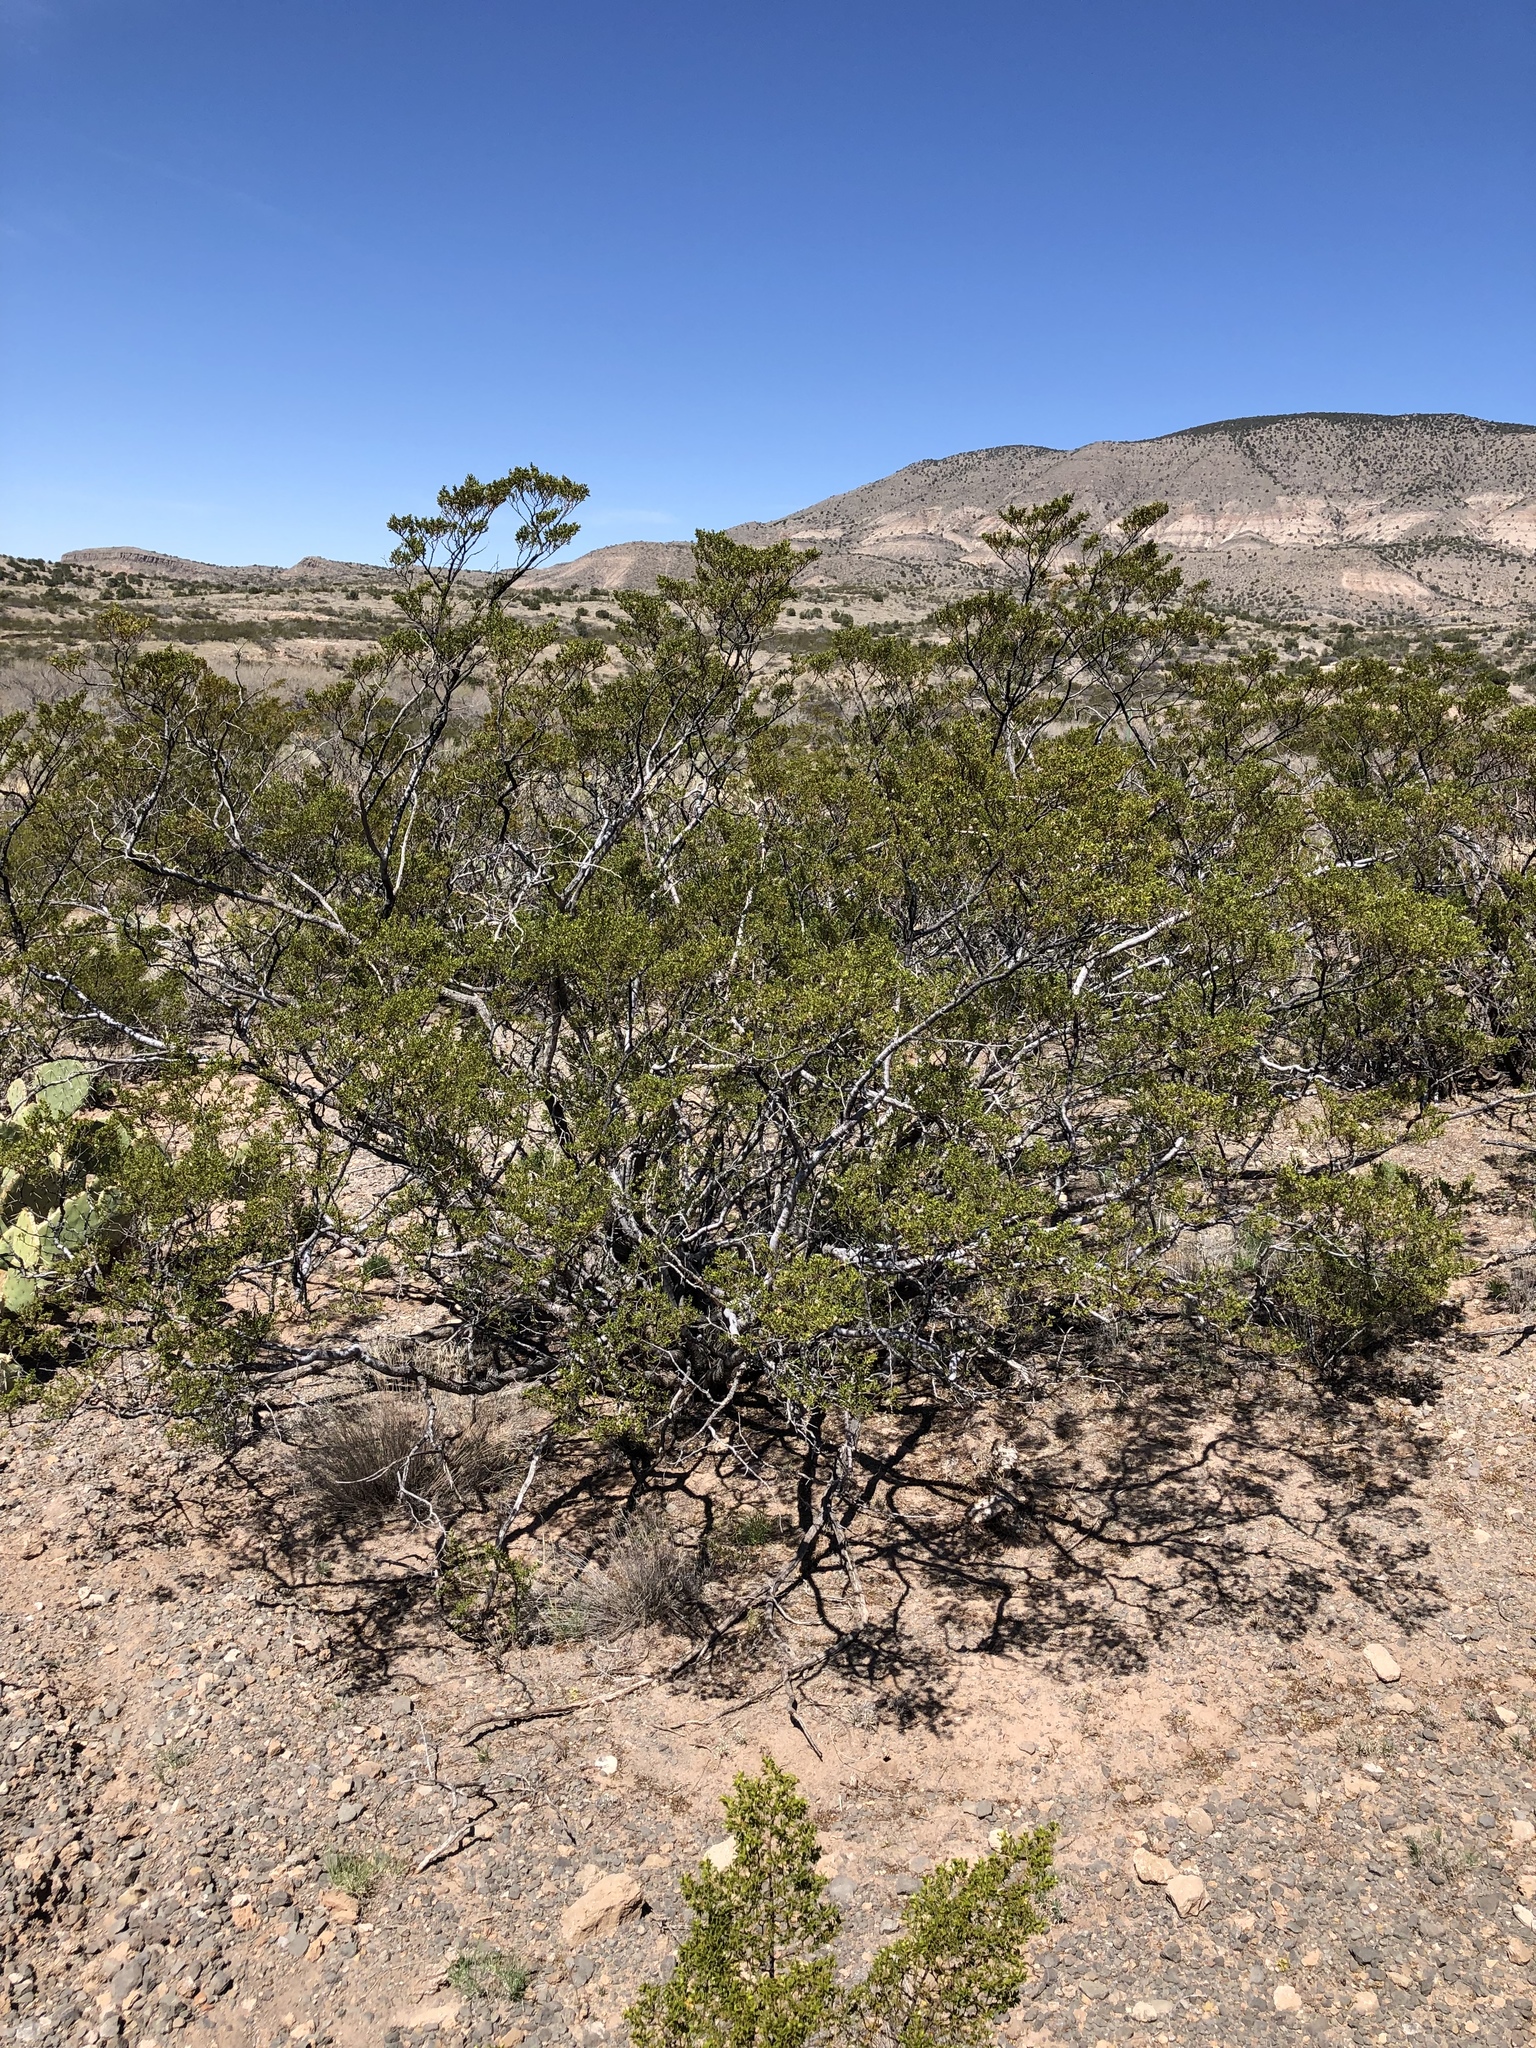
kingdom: Plantae
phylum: Tracheophyta
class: Magnoliopsida
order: Zygophyllales
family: Zygophyllaceae
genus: Larrea
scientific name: Larrea tridentata
